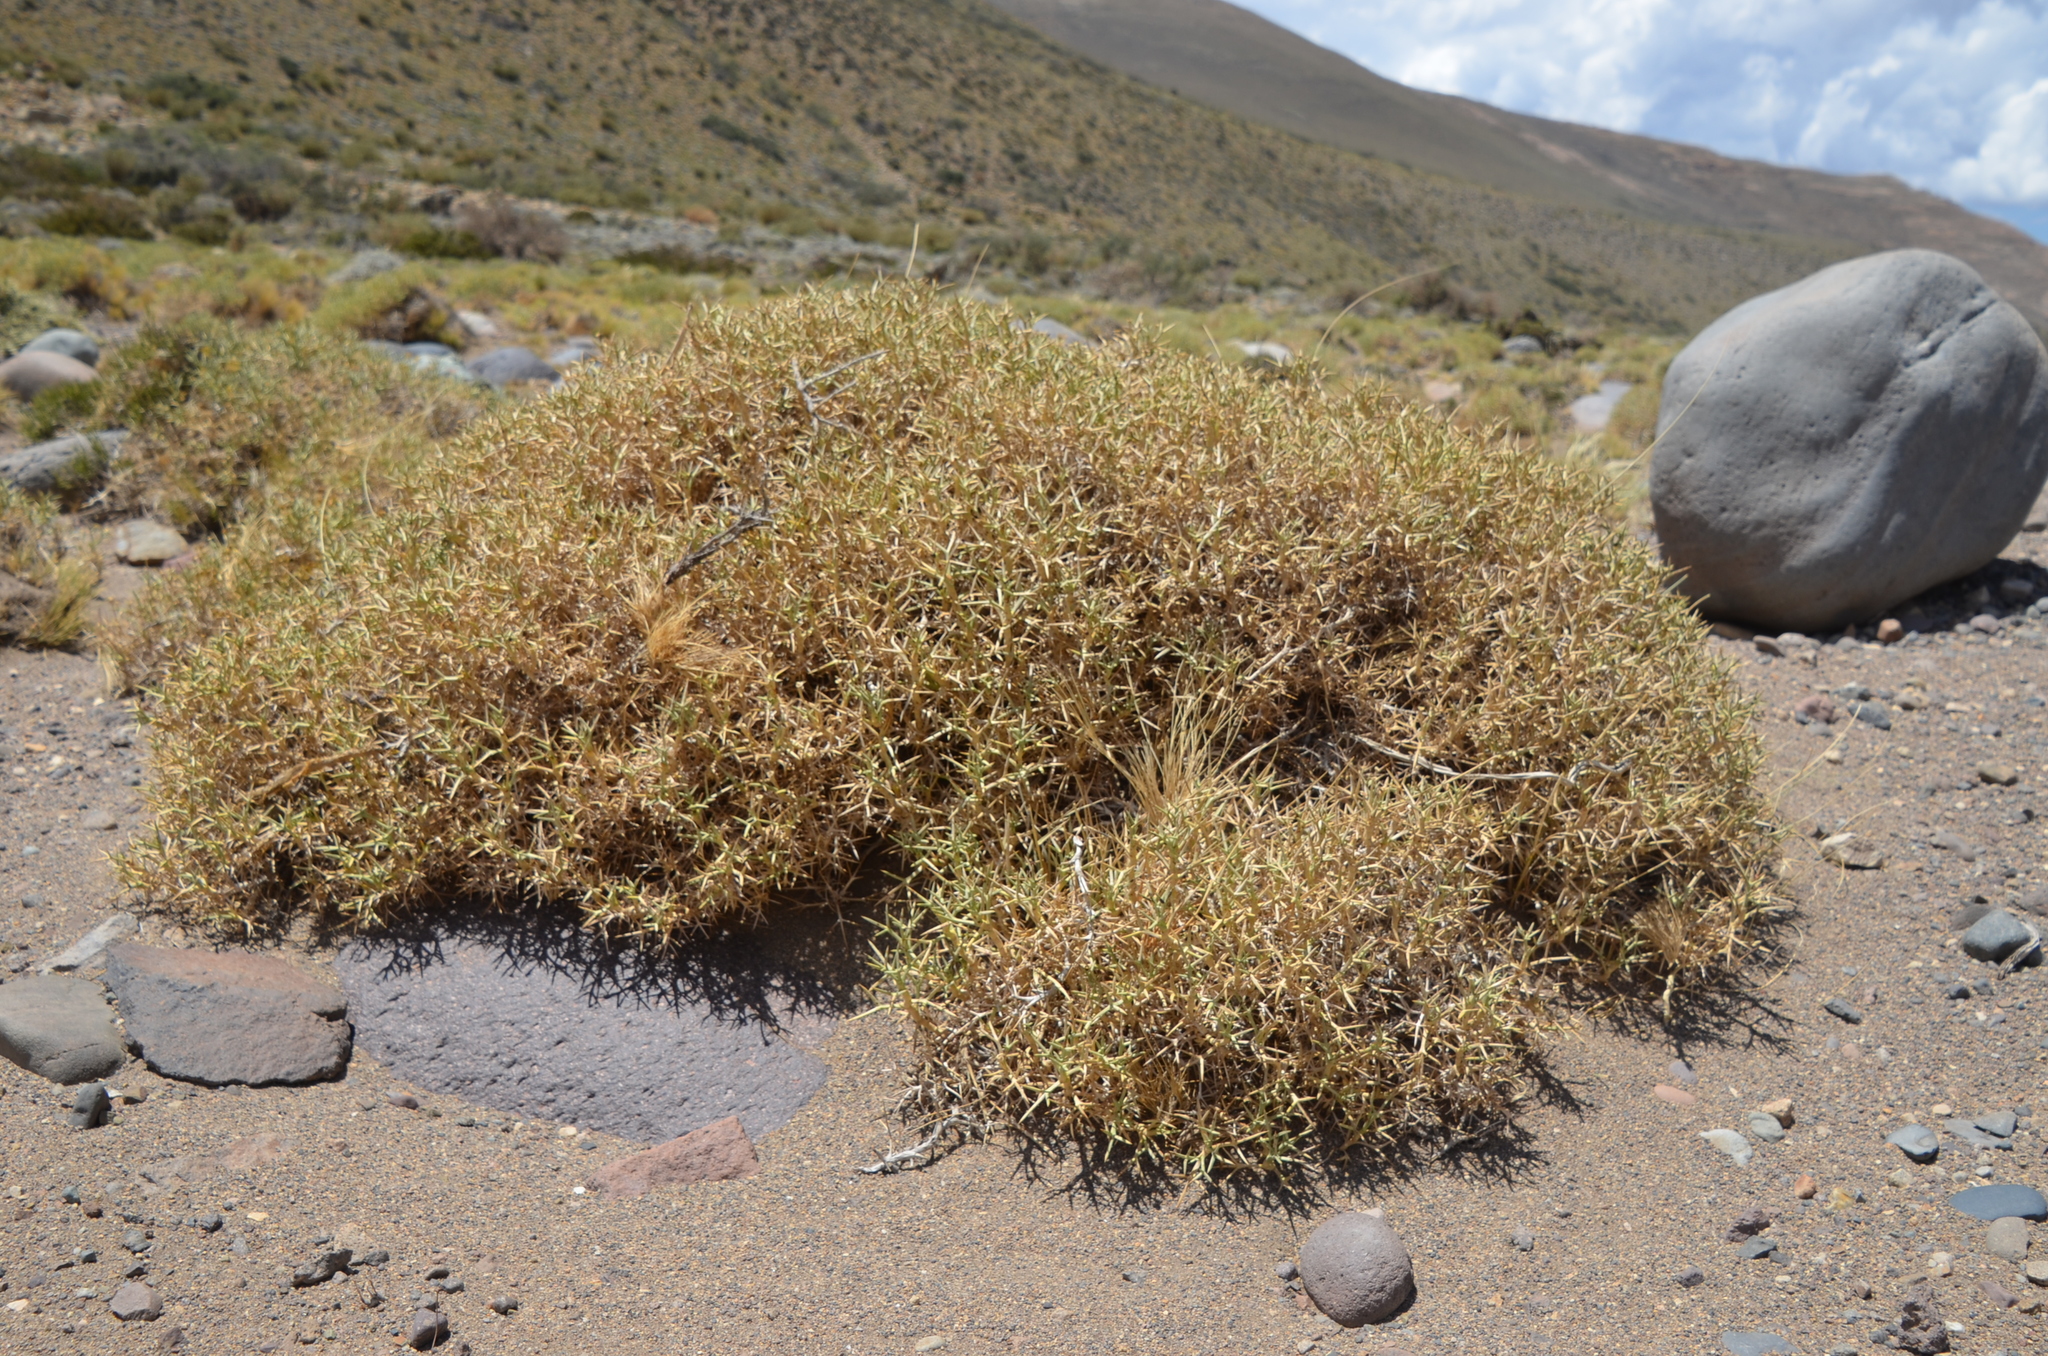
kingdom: Plantae
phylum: Tracheophyta
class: Magnoliopsida
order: Apiales
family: Apiaceae
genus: Azorella
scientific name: Azorella prolifera
